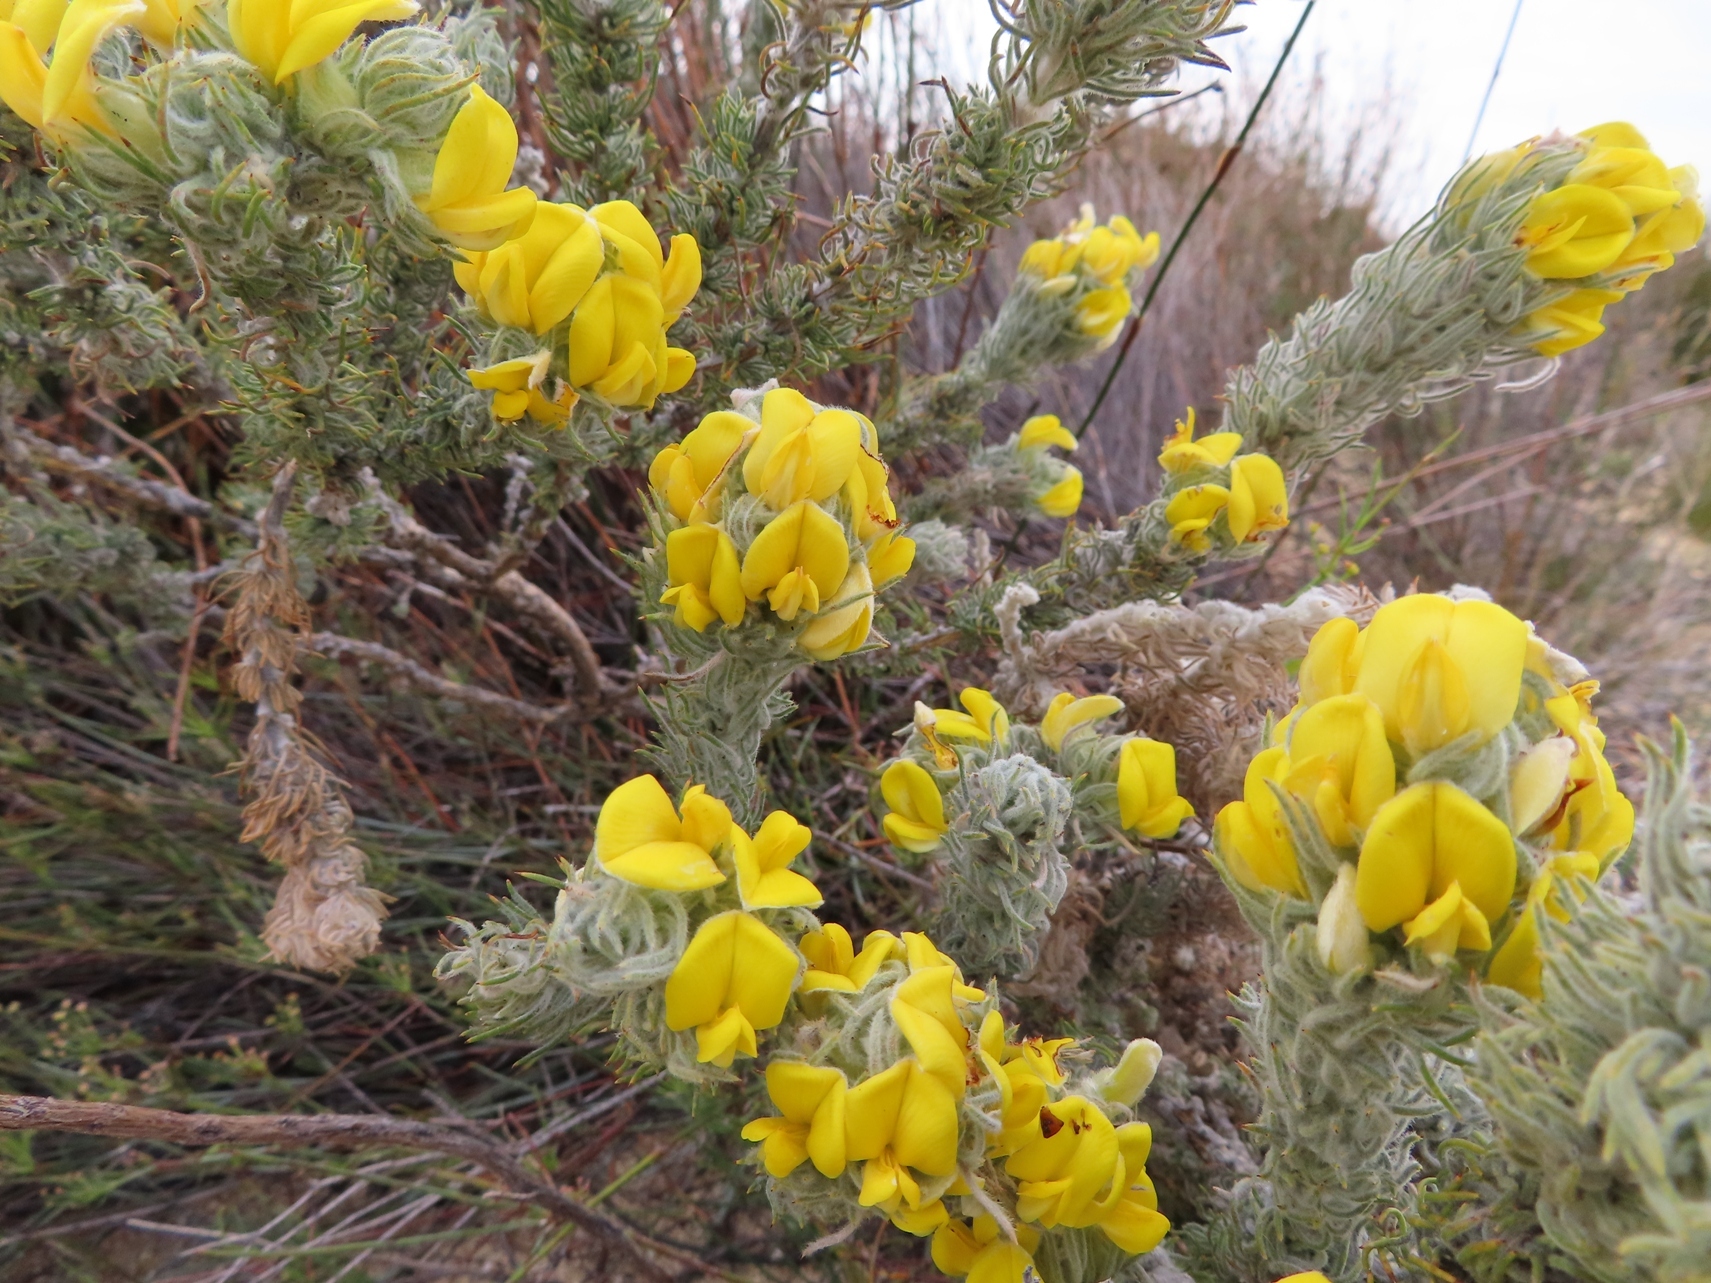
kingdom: Plantae
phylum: Tracheophyta
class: Magnoliopsida
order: Fabales
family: Fabaceae
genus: Aspalathus
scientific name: Aspalathus shawii
